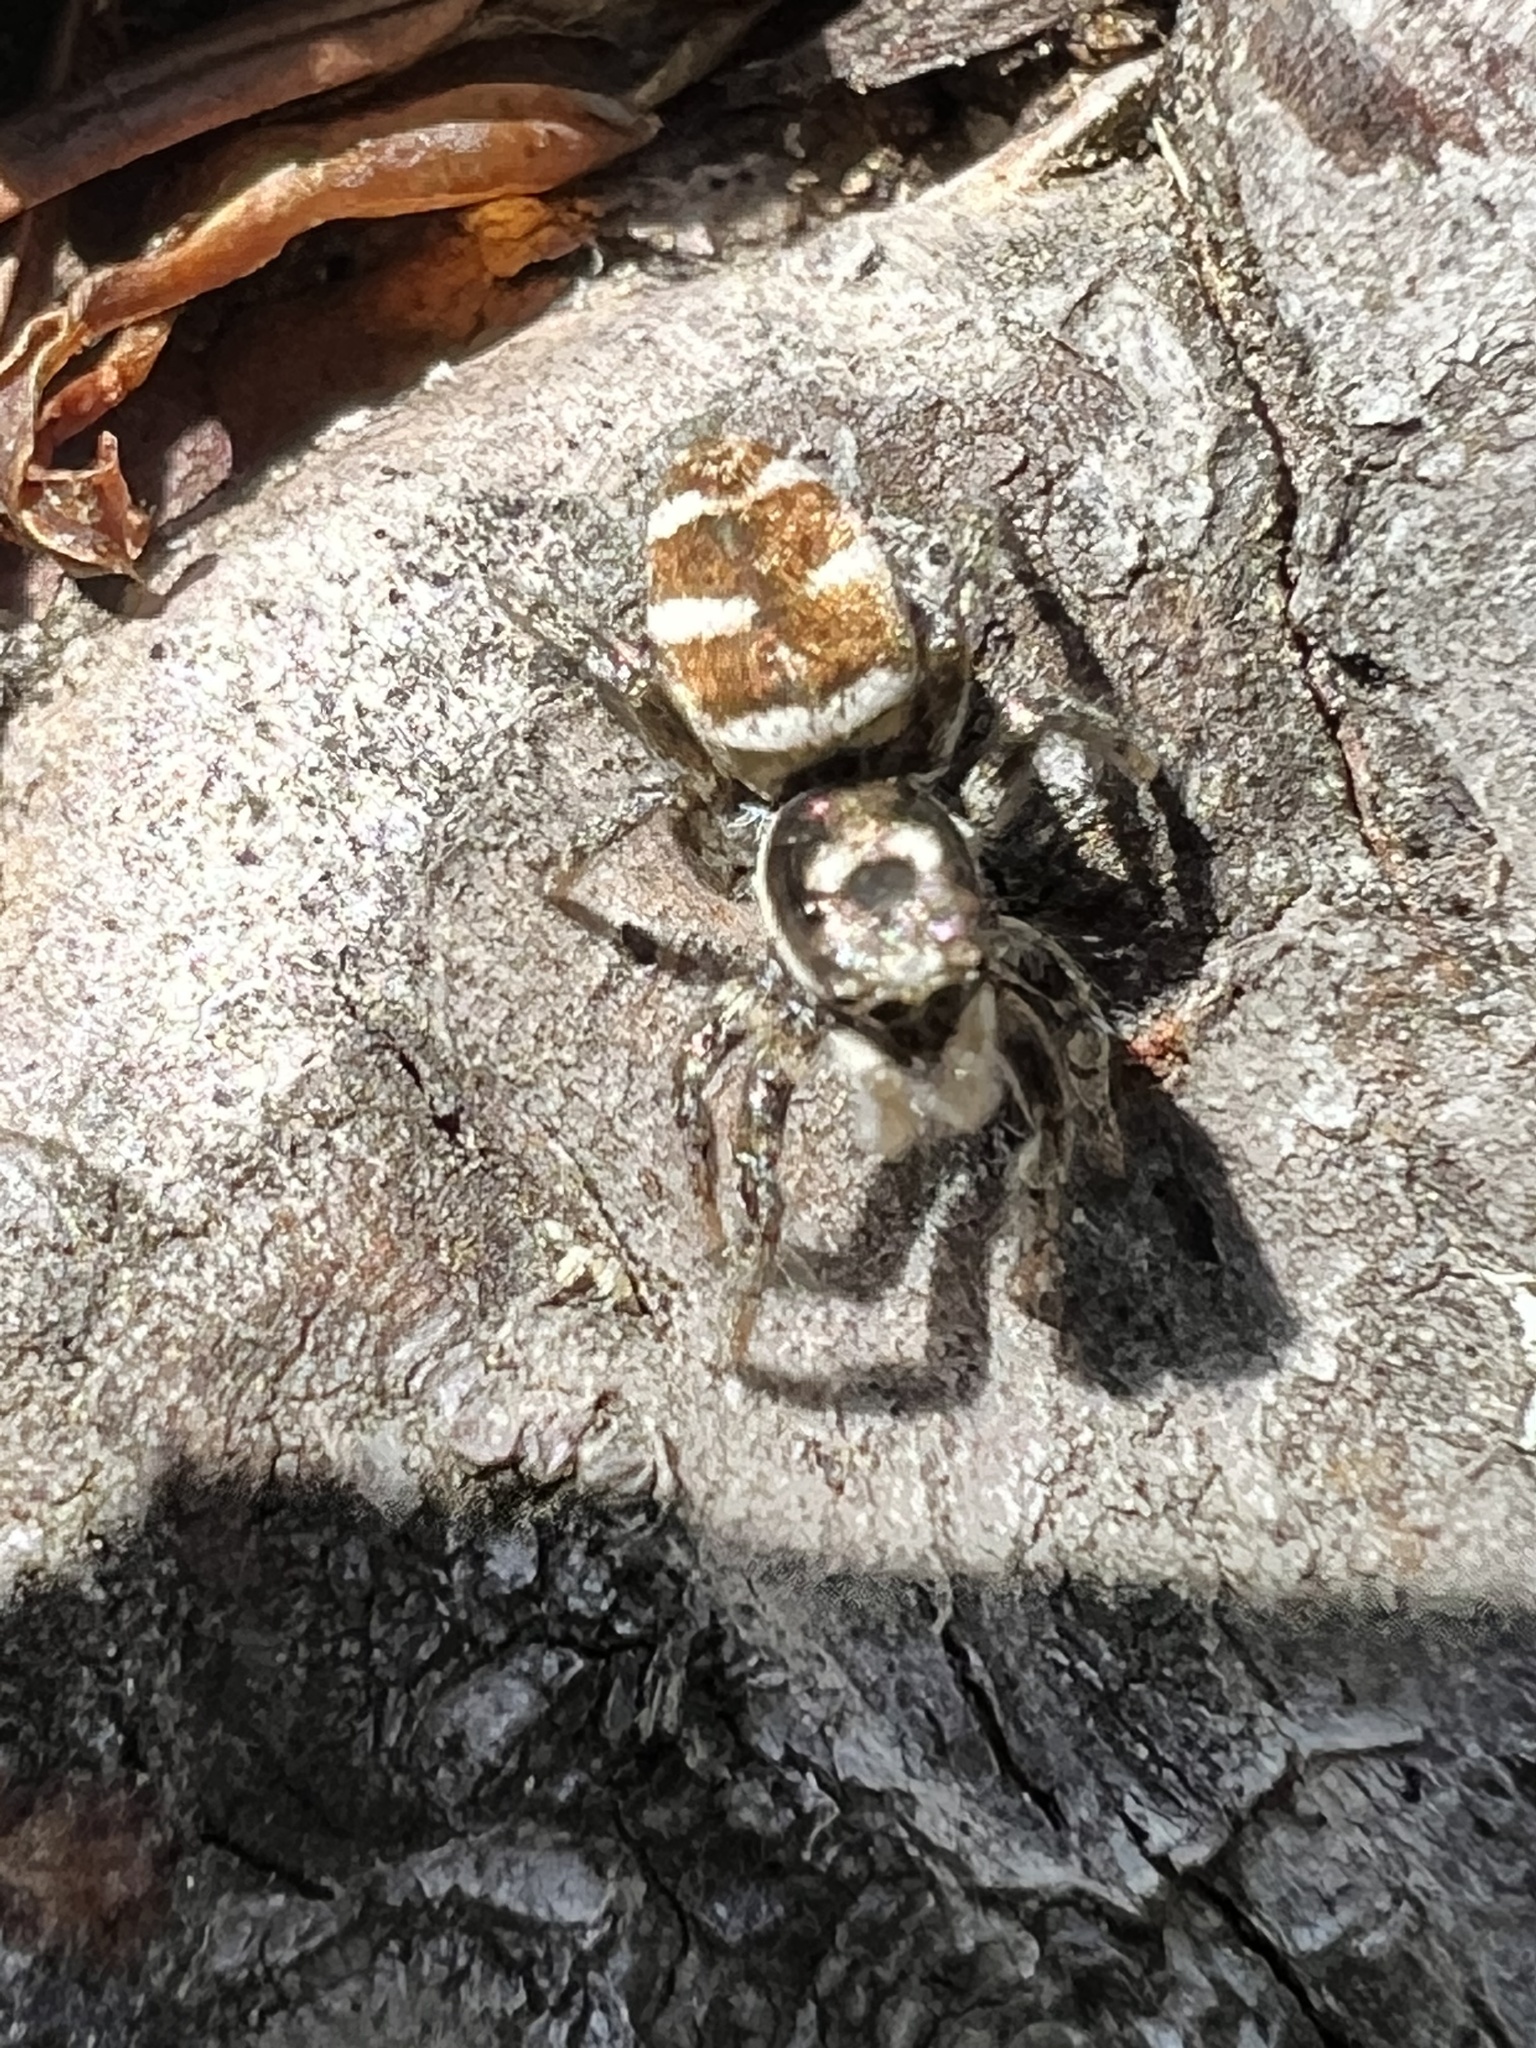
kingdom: Animalia
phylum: Arthropoda
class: Arachnida
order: Araneae
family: Salticidae
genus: Salticus
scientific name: Salticus scenicus
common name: Zebra jumper
